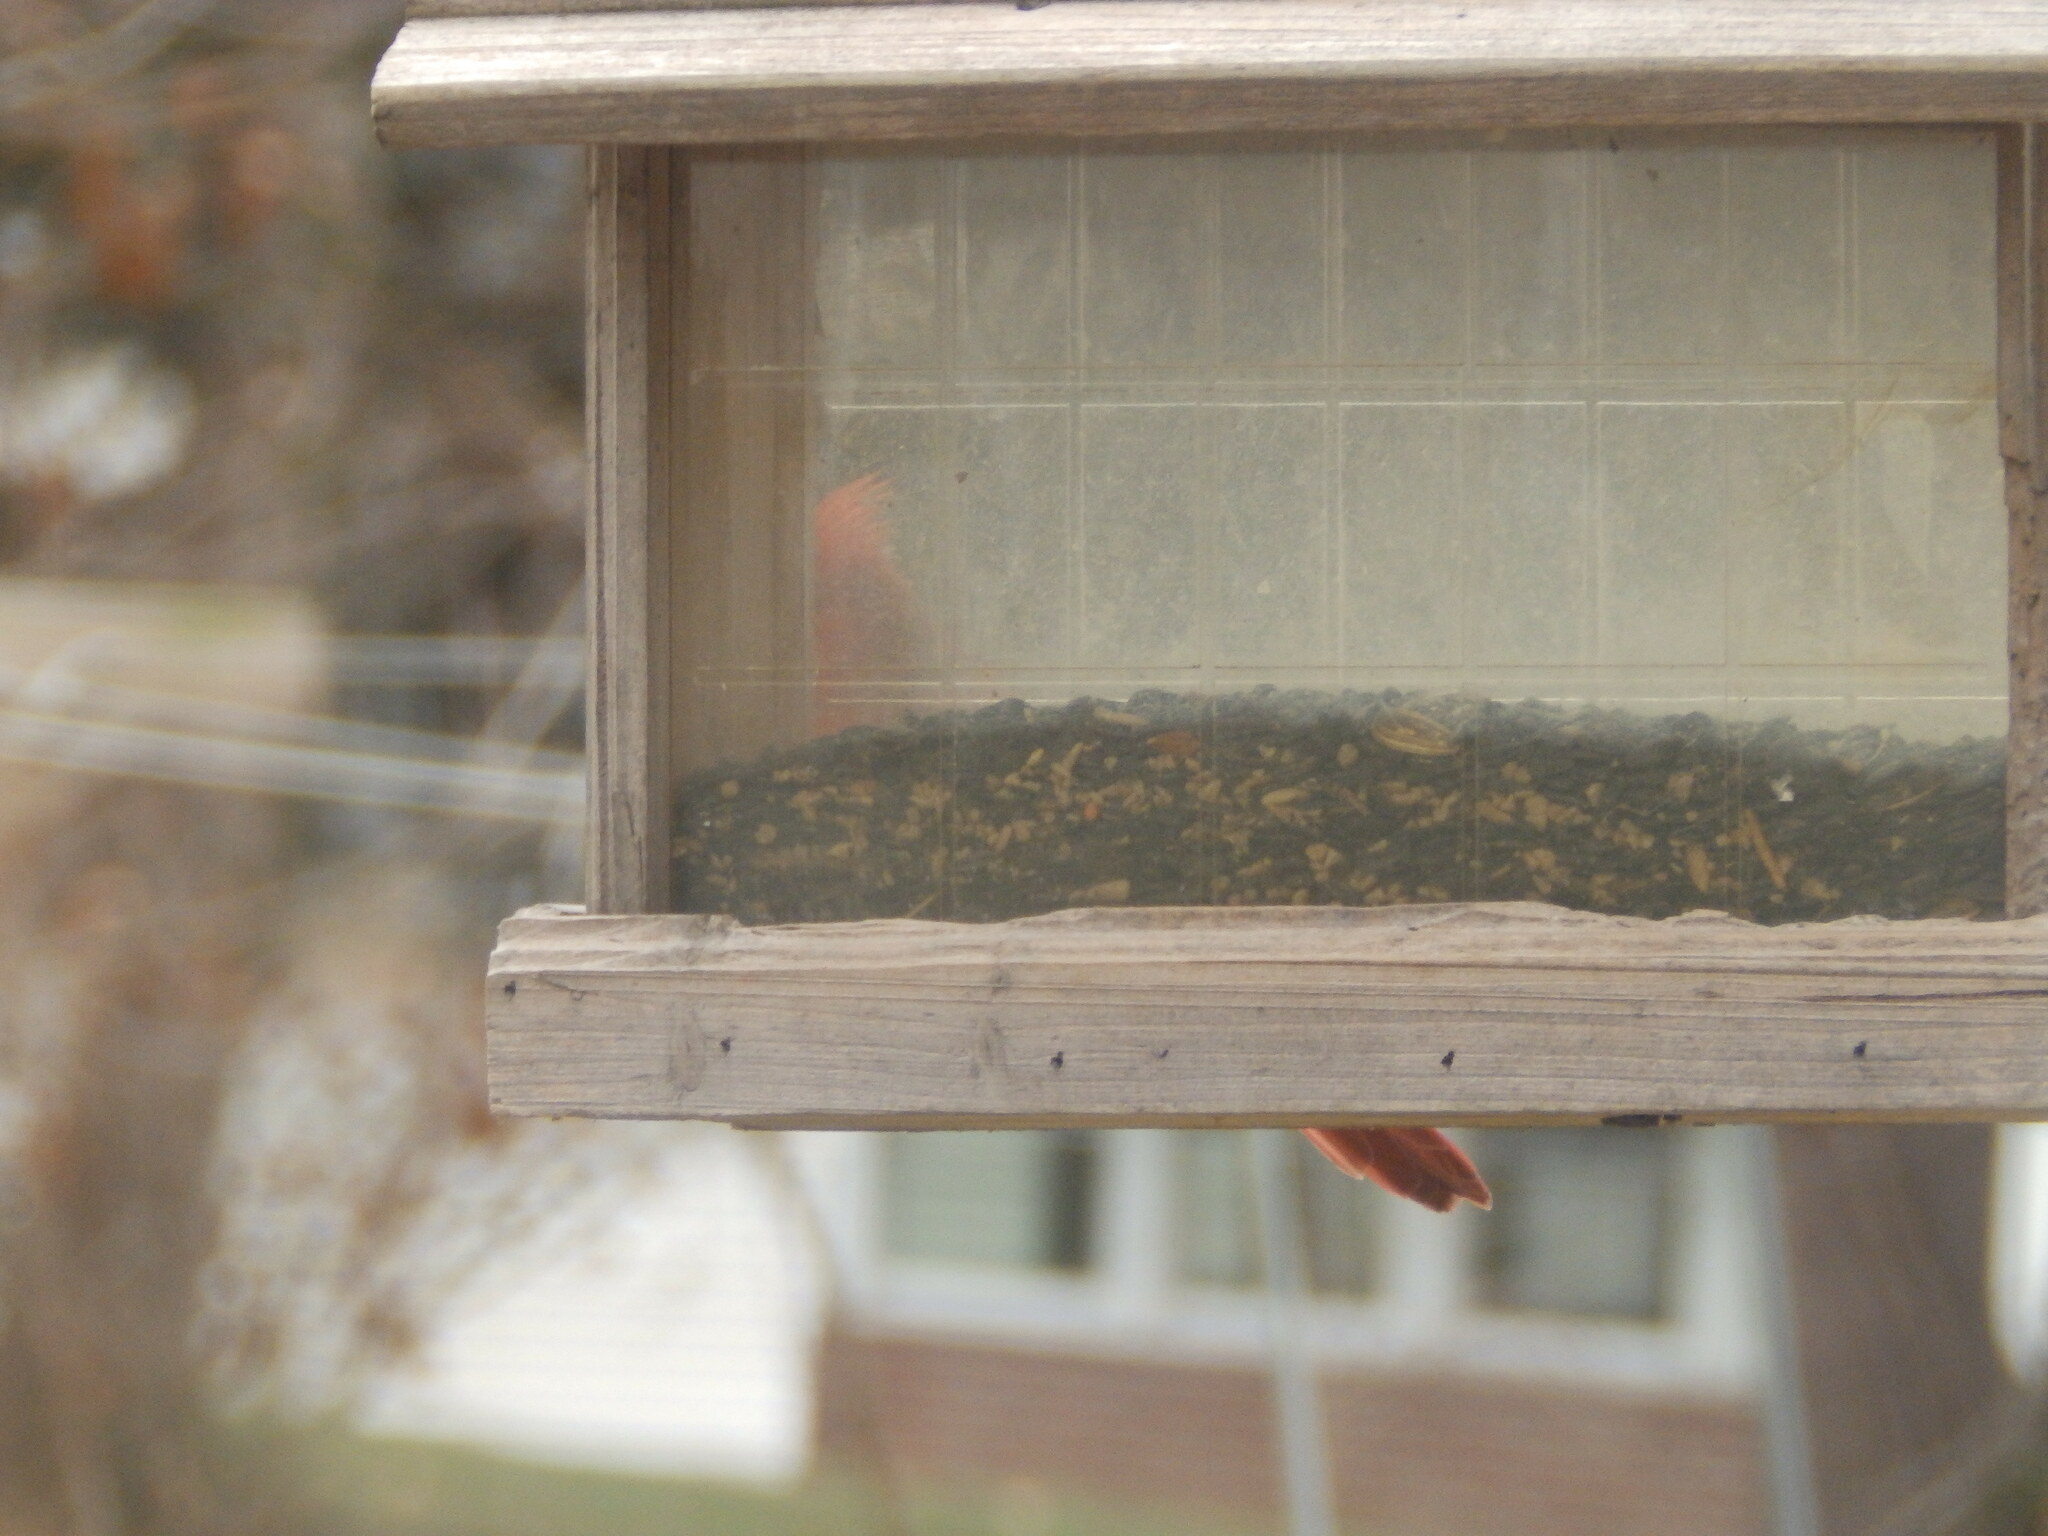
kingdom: Animalia
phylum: Chordata
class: Aves
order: Passeriformes
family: Cardinalidae
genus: Cardinalis
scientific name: Cardinalis cardinalis
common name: Northern cardinal
